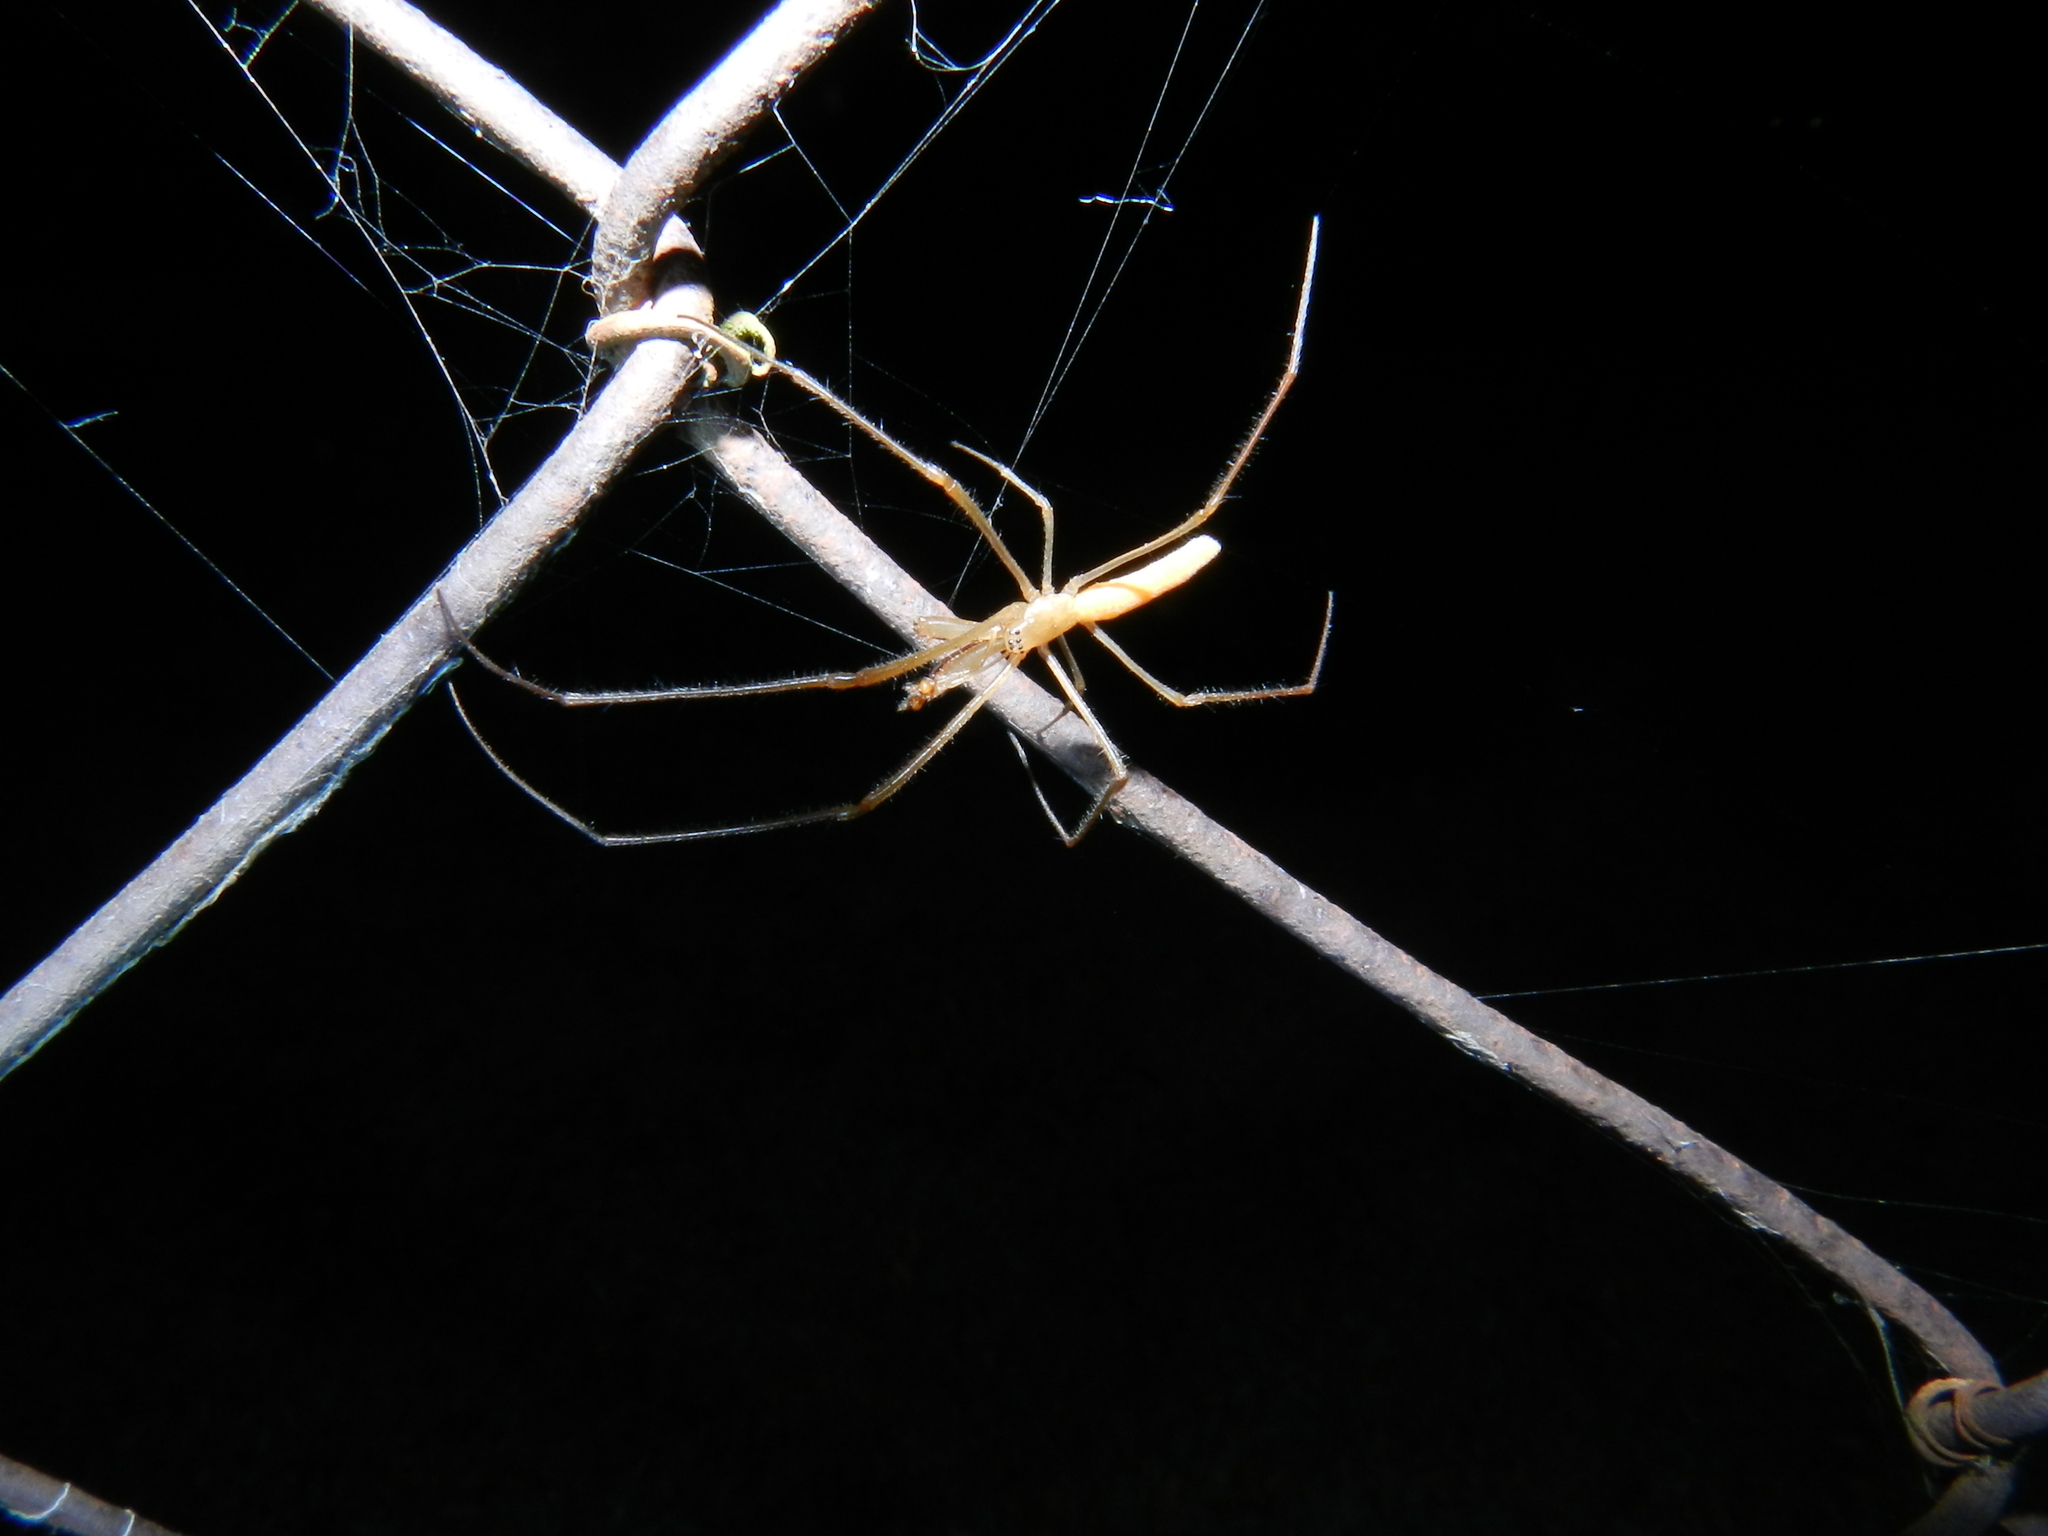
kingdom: Animalia
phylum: Arthropoda
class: Arachnida
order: Araneae
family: Tetragnathidae
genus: Tetragnatha
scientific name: Tetragnatha
